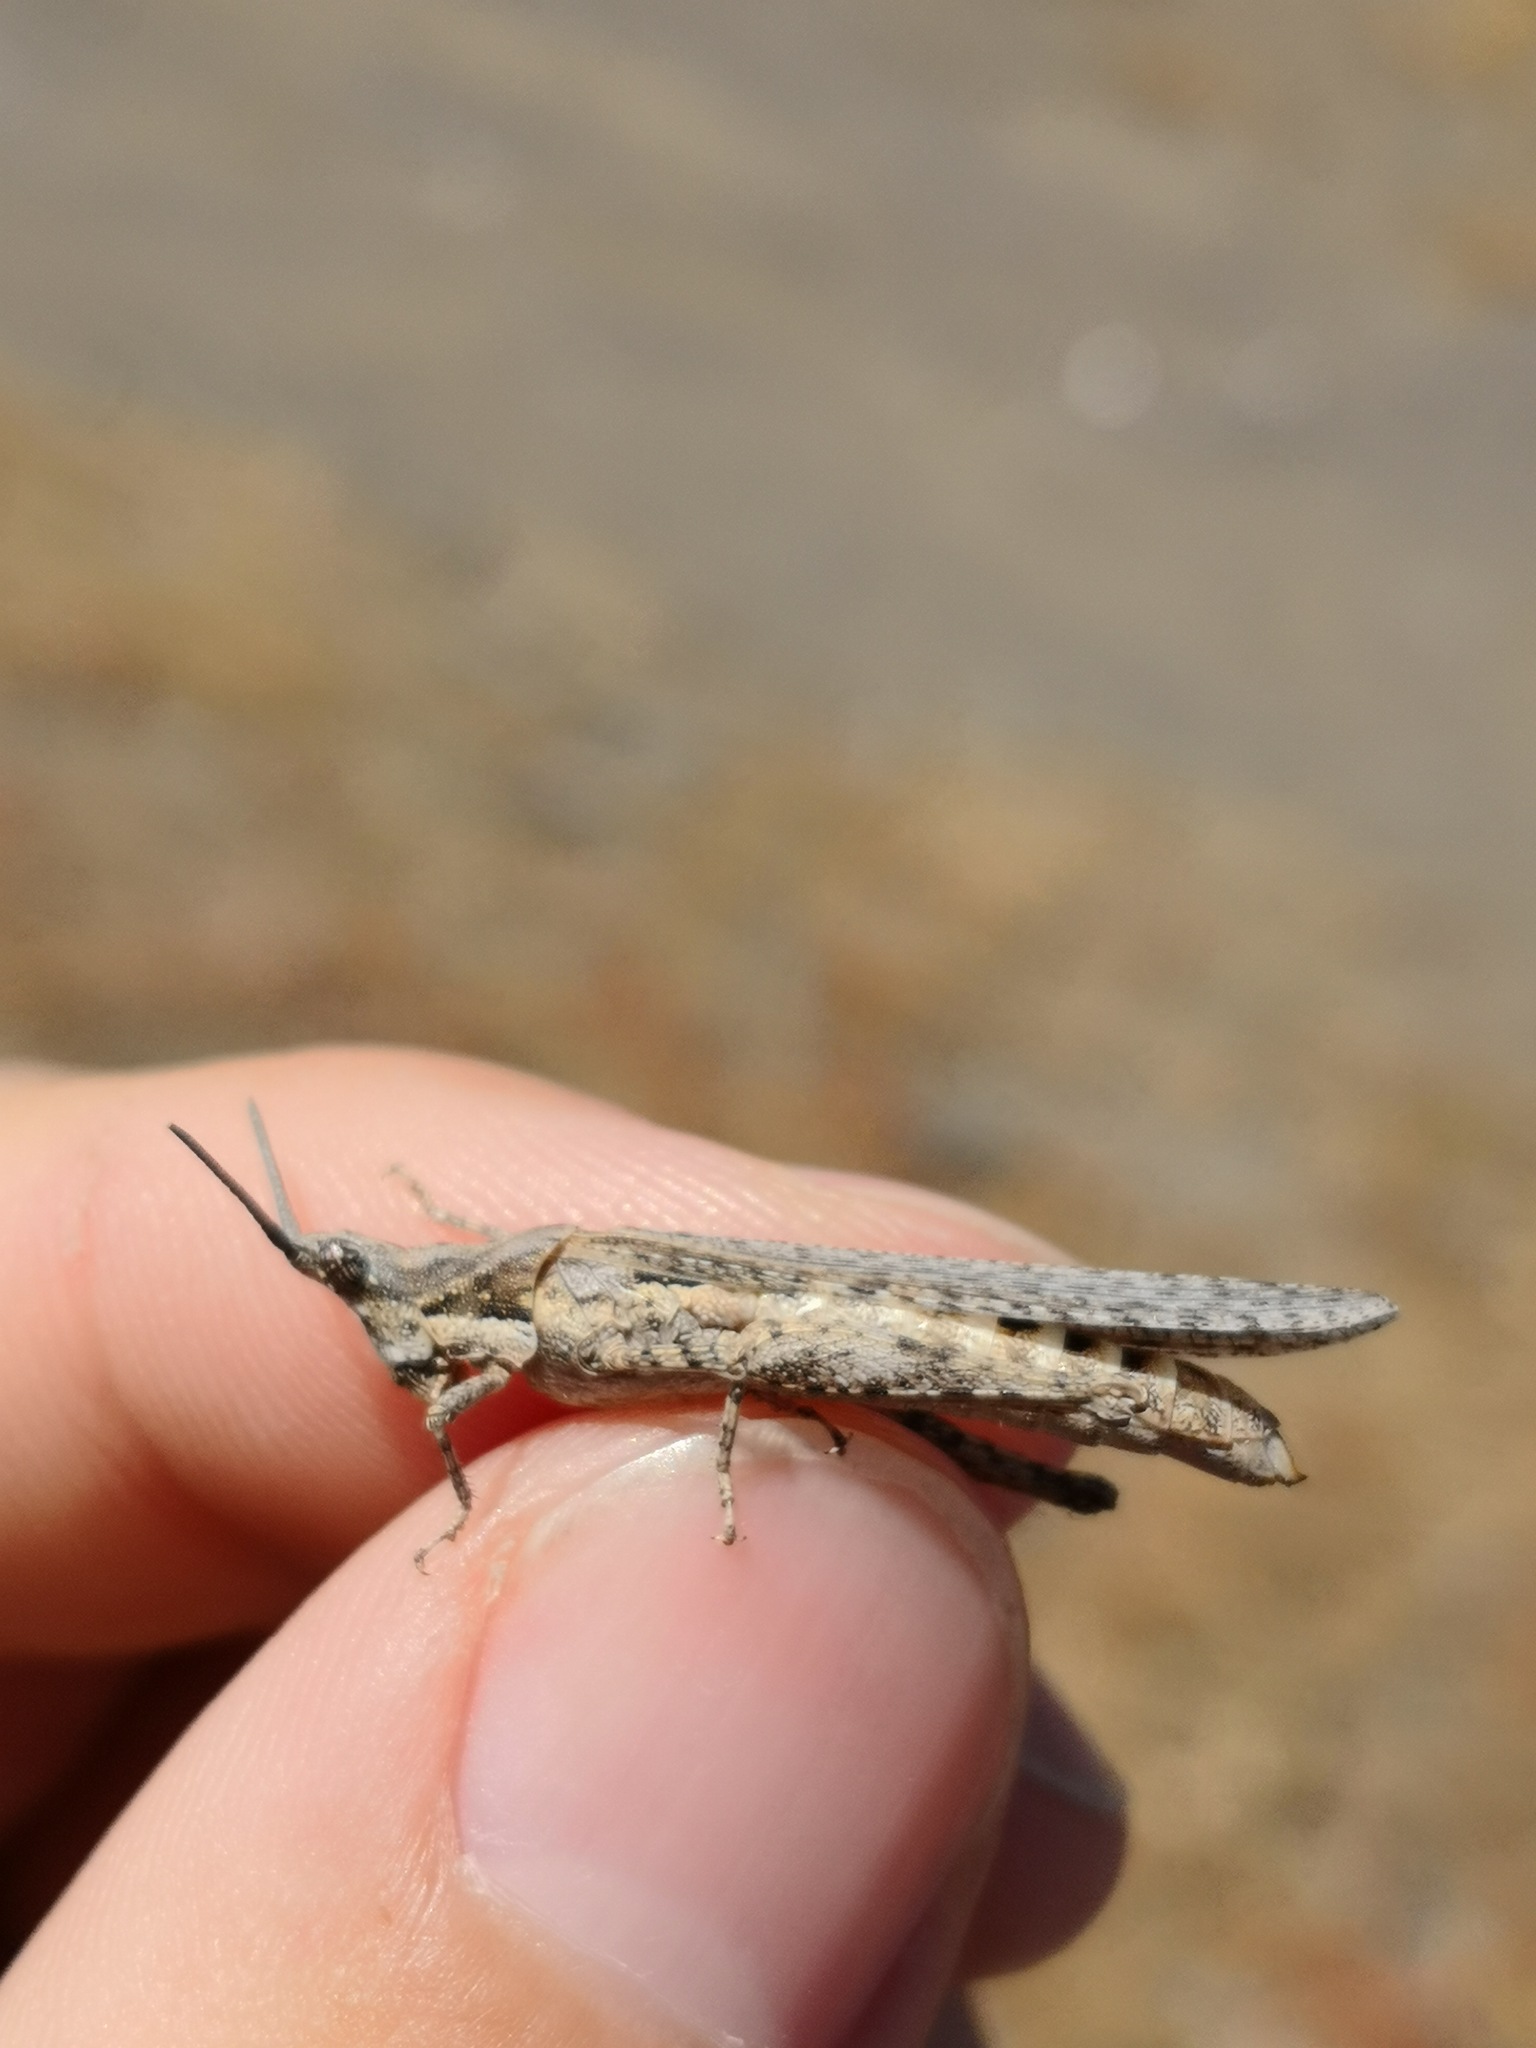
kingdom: Animalia
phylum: Arthropoda
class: Insecta
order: Orthoptera
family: Pyrgomorphidae
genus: Pyrgomorpha
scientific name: Pyrgomorpha conica
